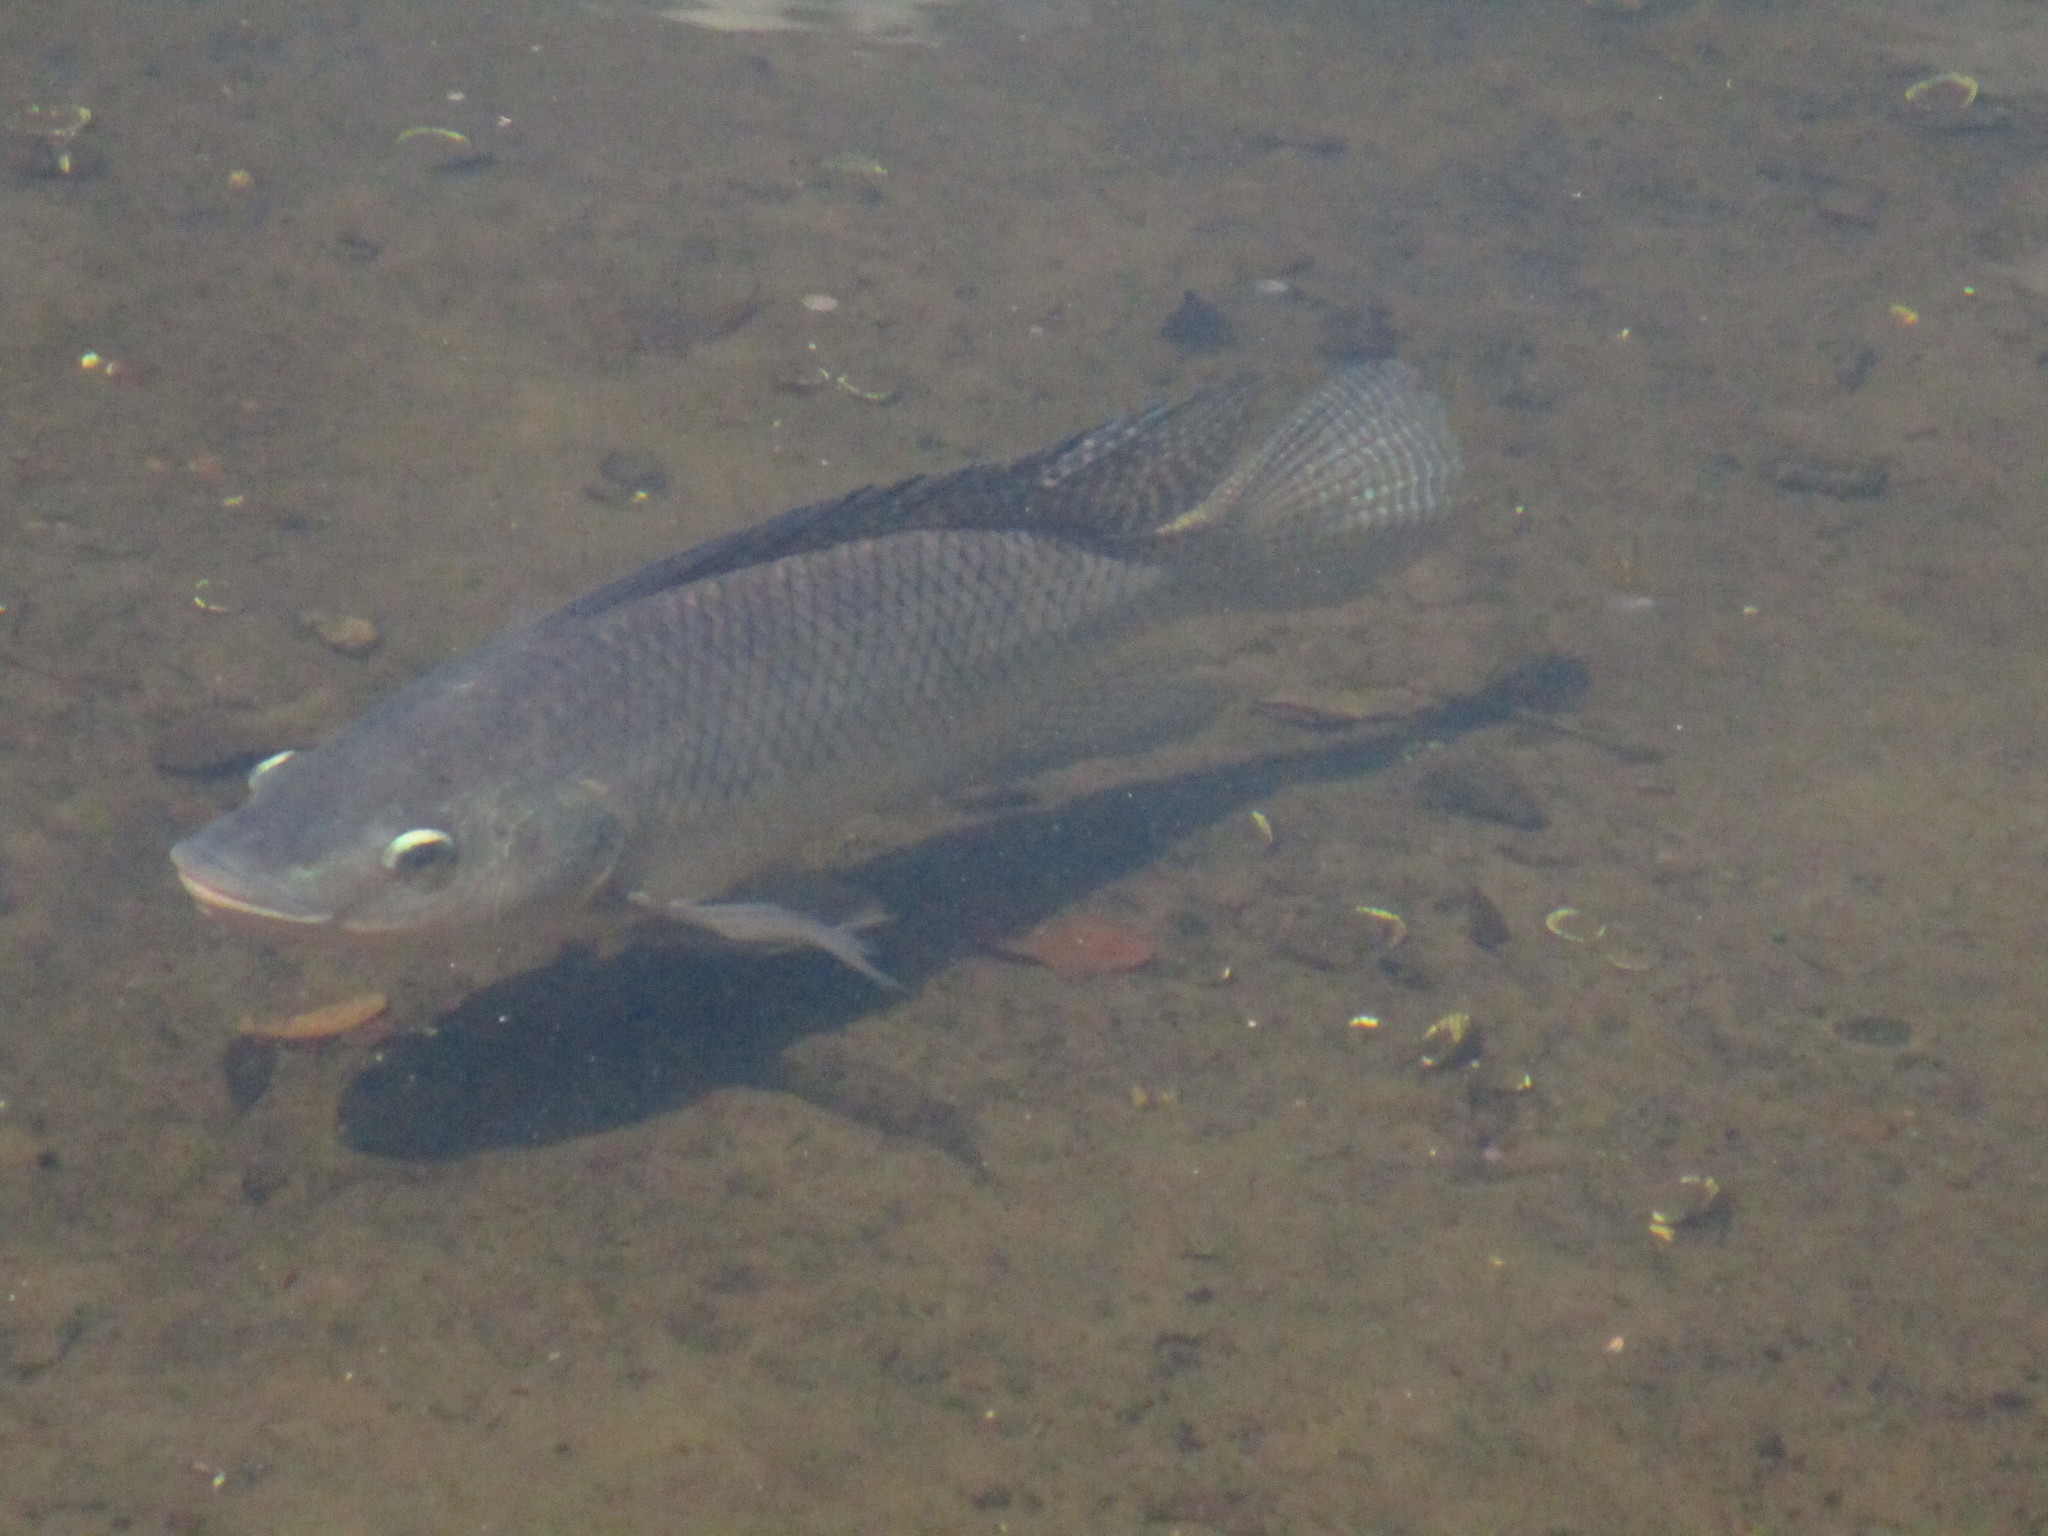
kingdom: Animalia
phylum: Chordata
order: Perciformes
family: Cichlidae
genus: Oreochromis
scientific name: Oreochromis niloticus
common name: Nile tilapia
